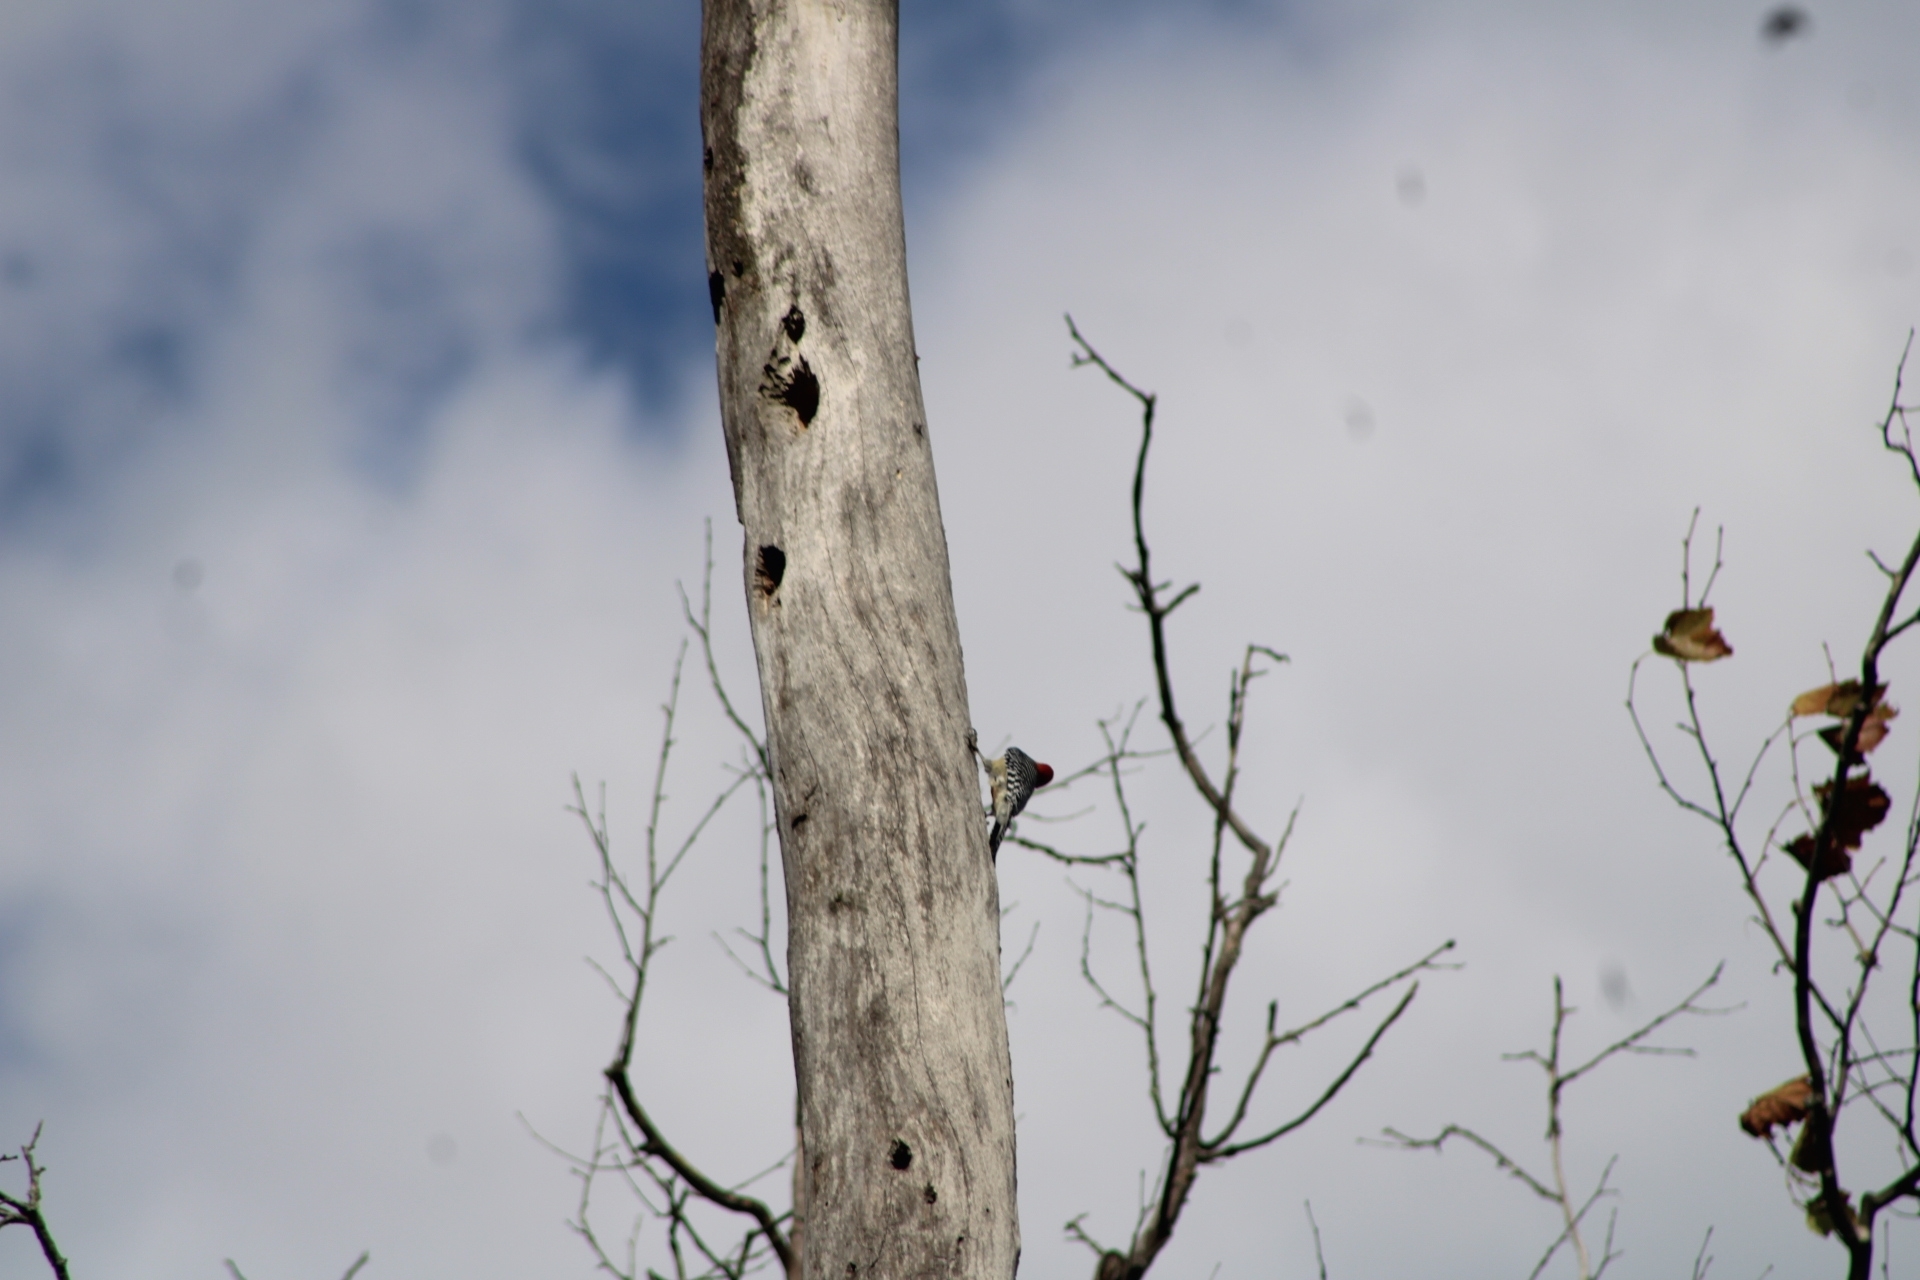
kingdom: Animalia
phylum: Chordata
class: Aves
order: Piciformes
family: Picidae
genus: Melanerpes
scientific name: Melanerpes carolinus
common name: Red-bellied woodpecker
